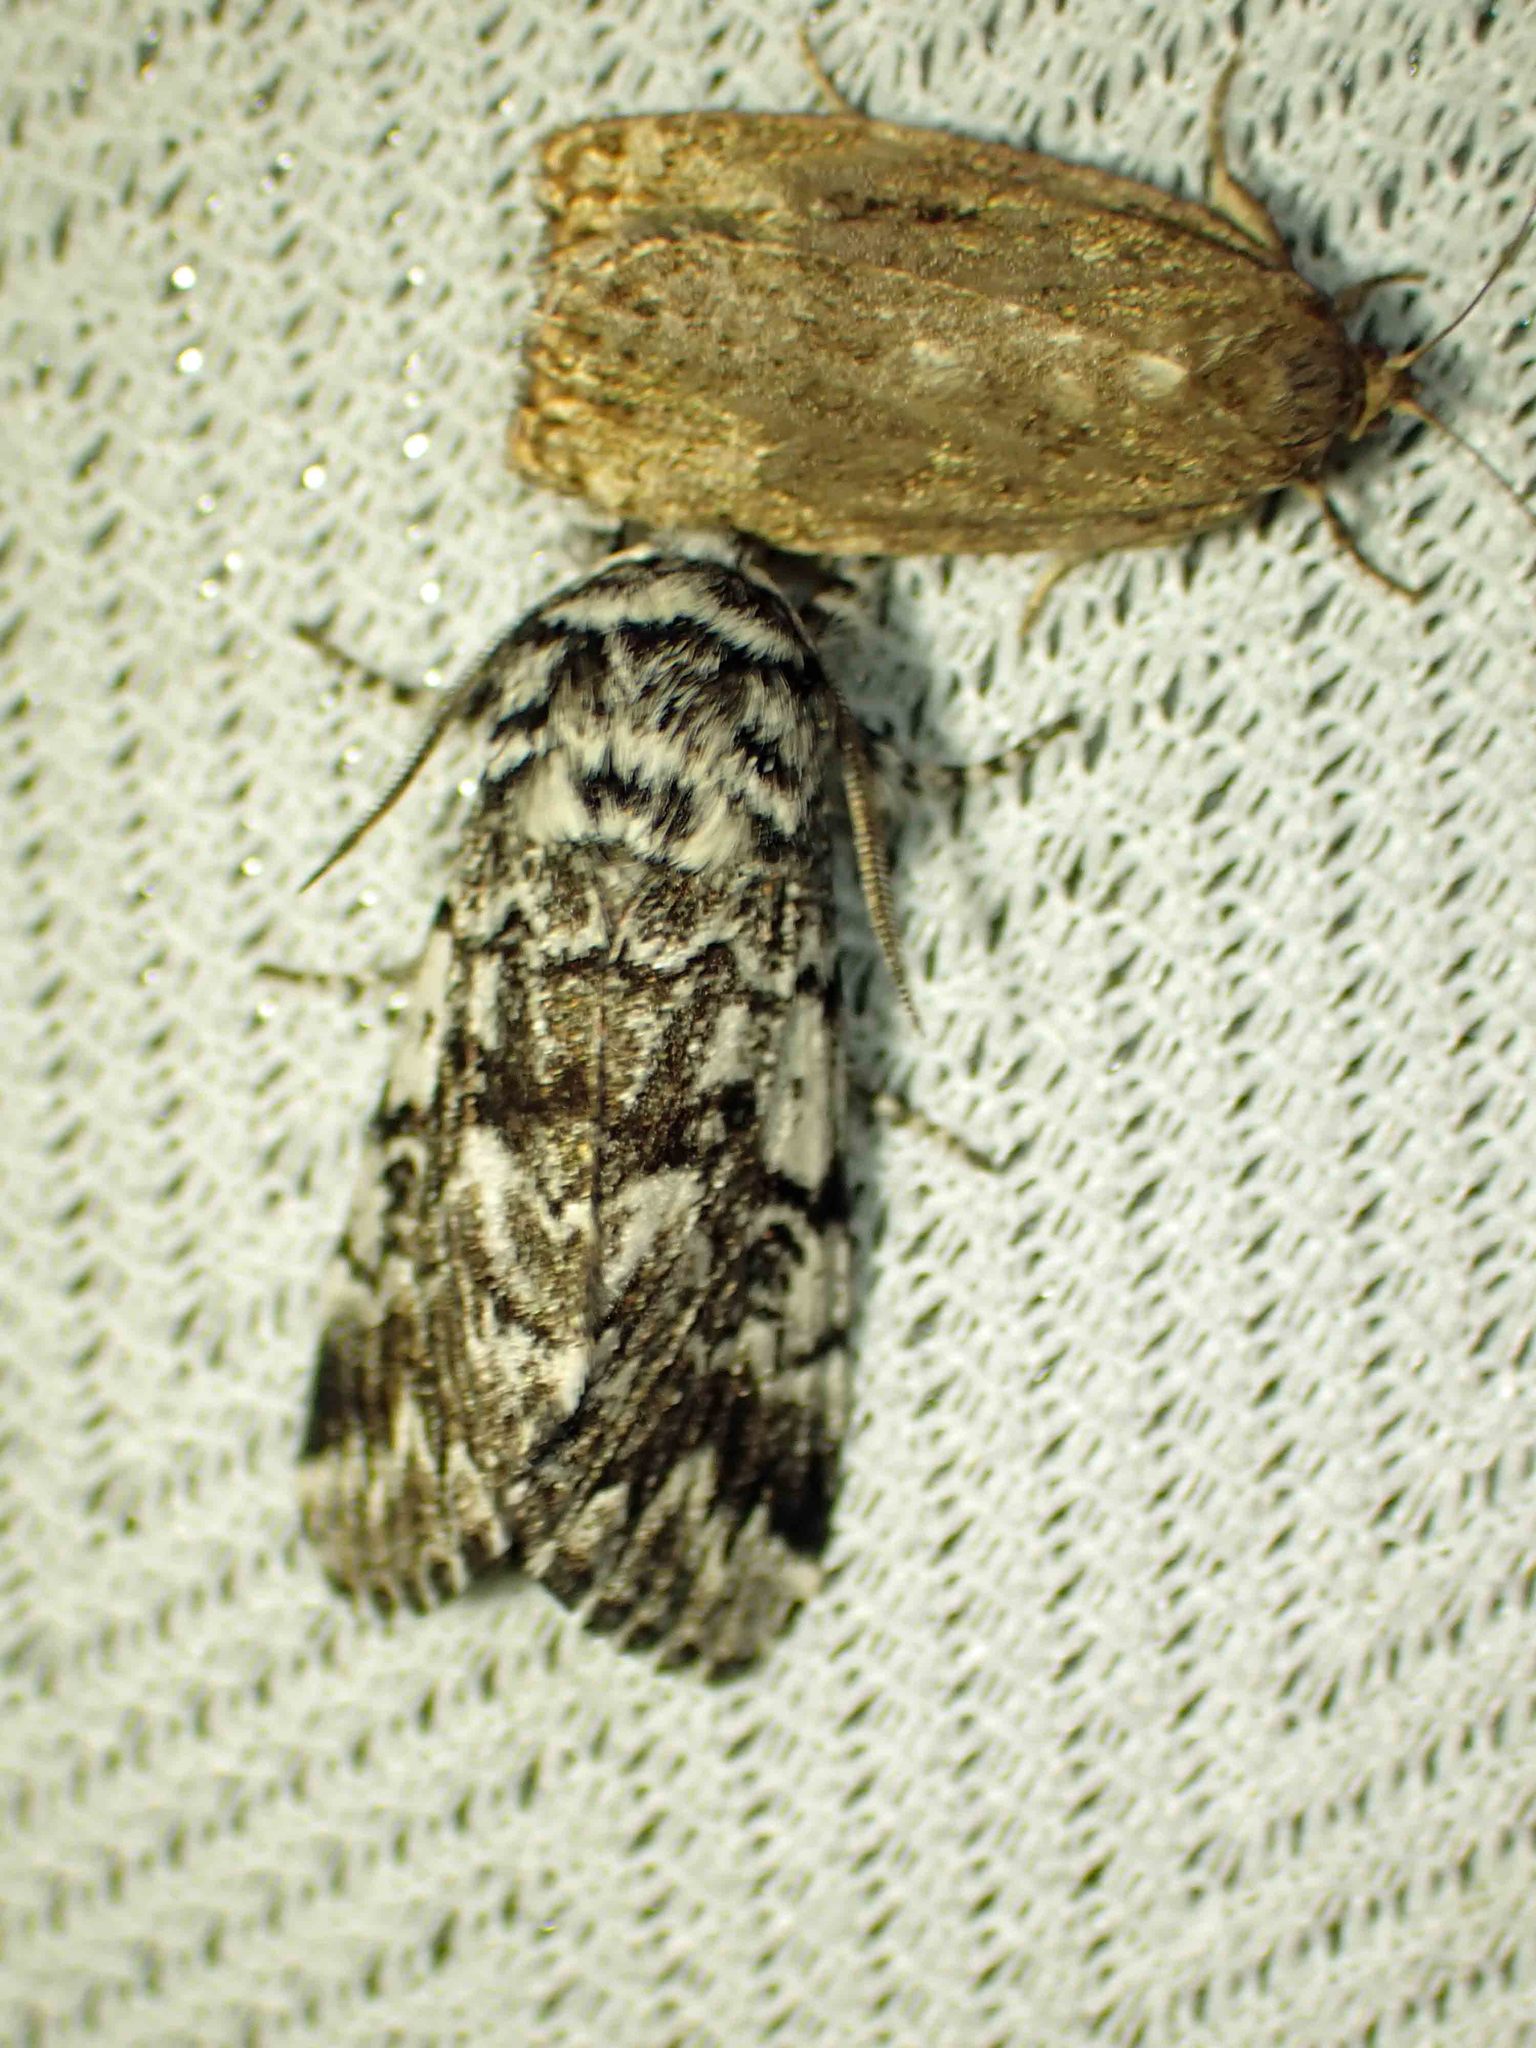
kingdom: Animalia
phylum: Arthropoda
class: Insecta
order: Lepidoptera
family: Noctuidae
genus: Panthea
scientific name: Panthea acronyctoides
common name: Black zigzag moth
